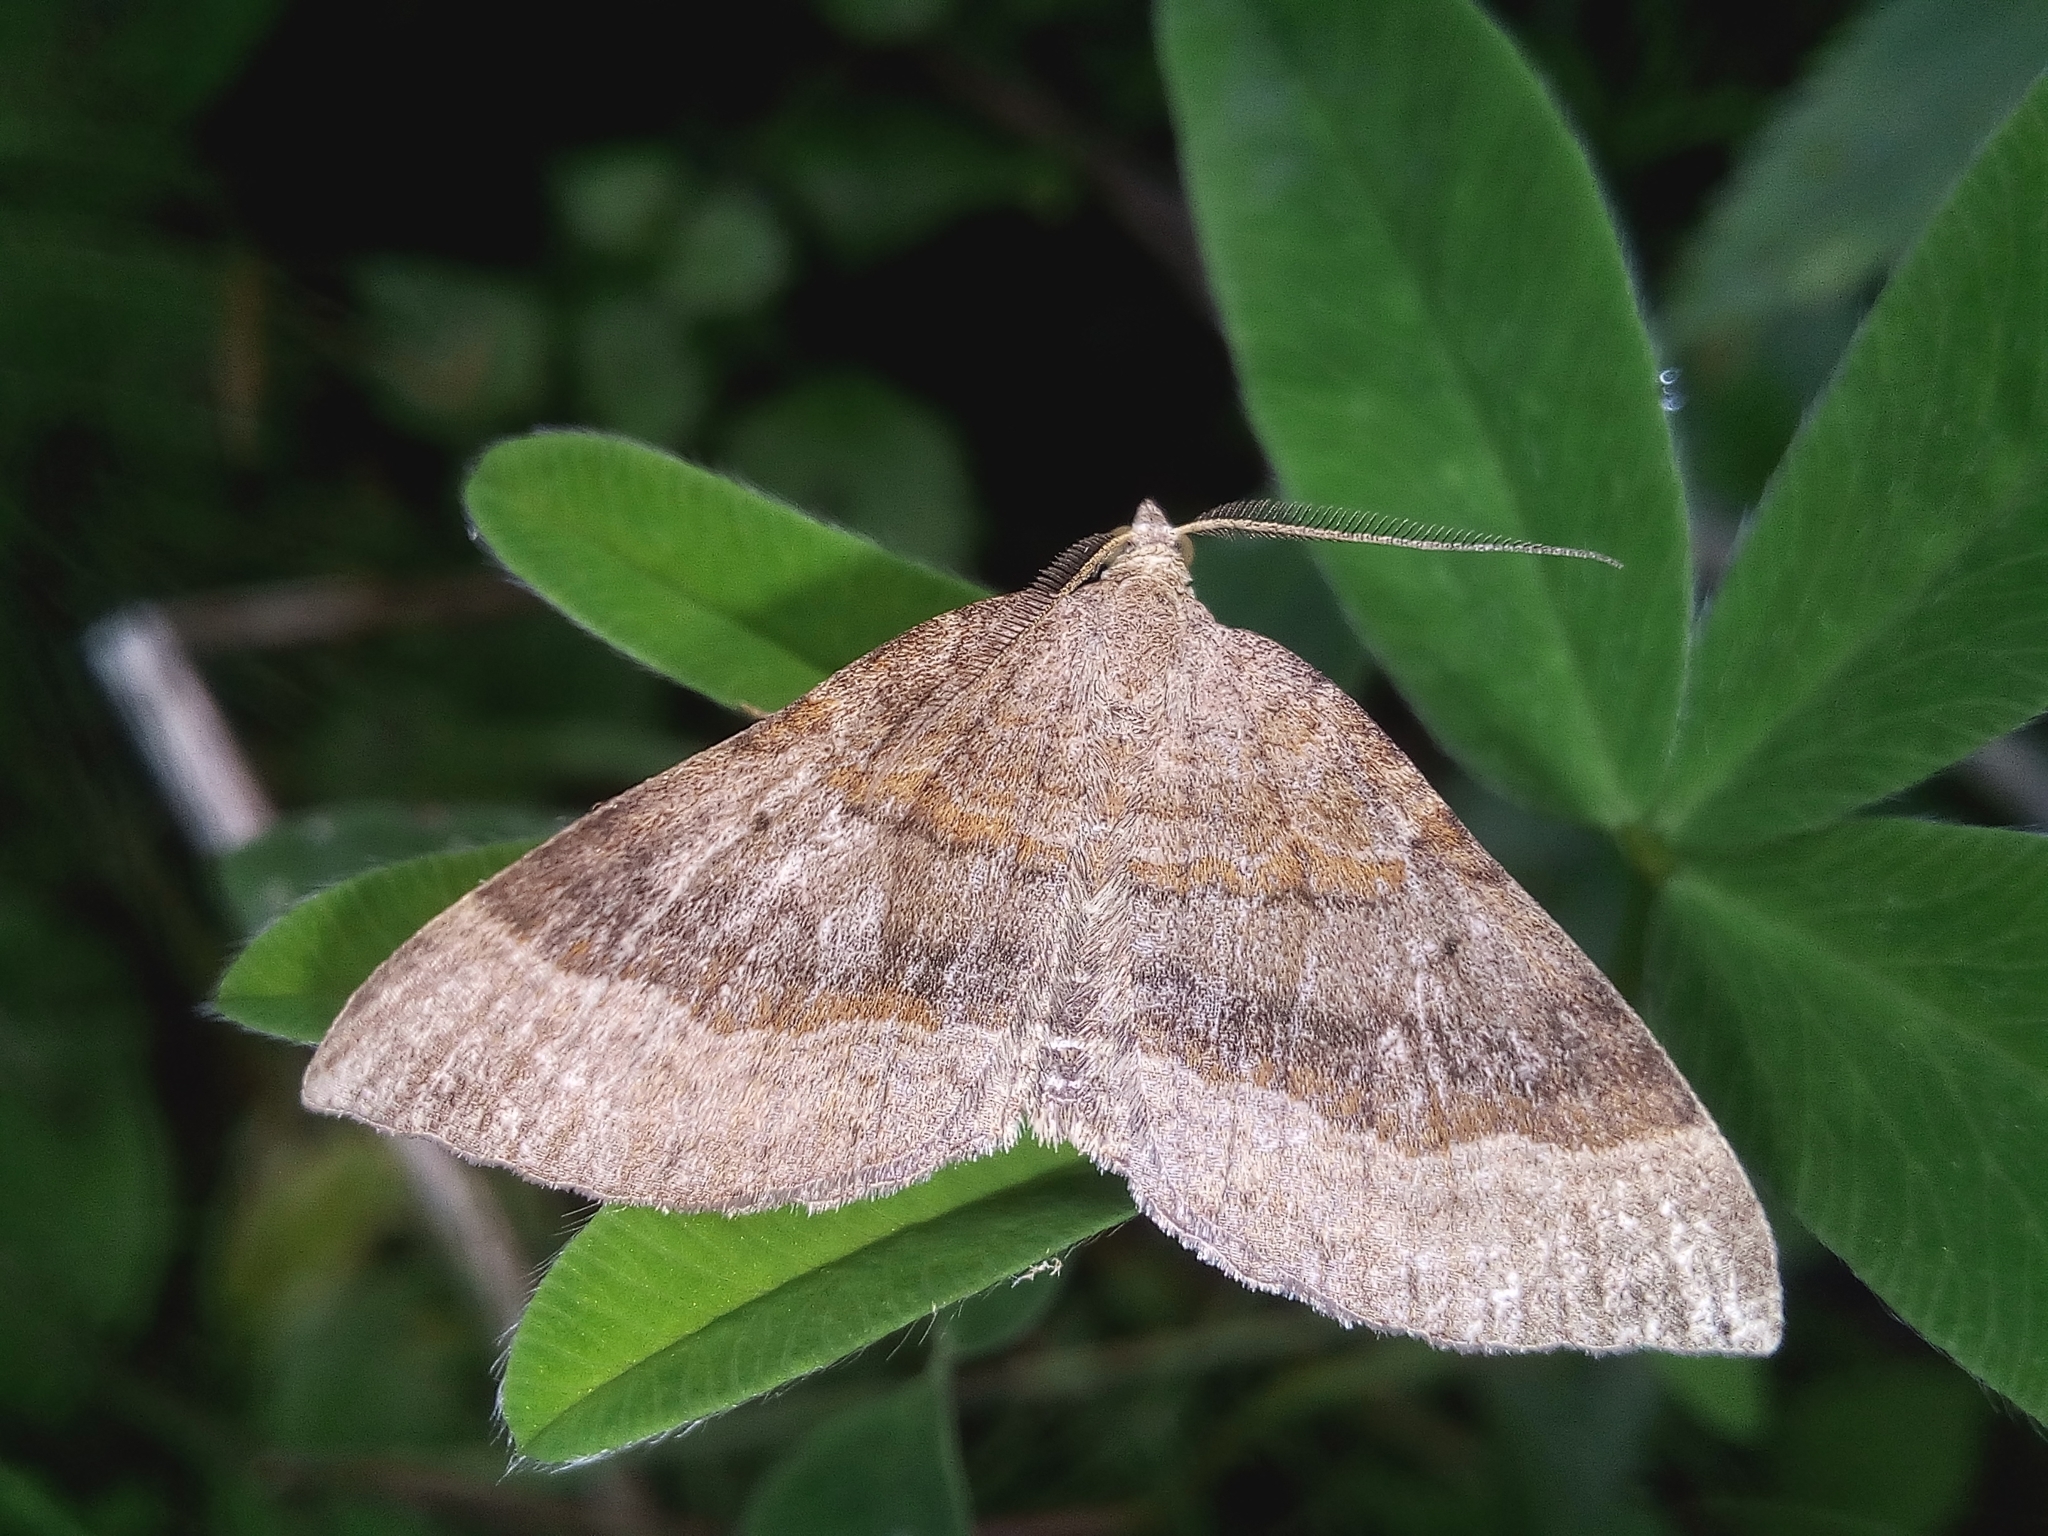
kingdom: Animalia
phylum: Arthropoda
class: Insecta
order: Lepidoptera
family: Geometridae
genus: Scotopteryx
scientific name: Scotopteryx chenopodiata
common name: Shaded broad-bar
